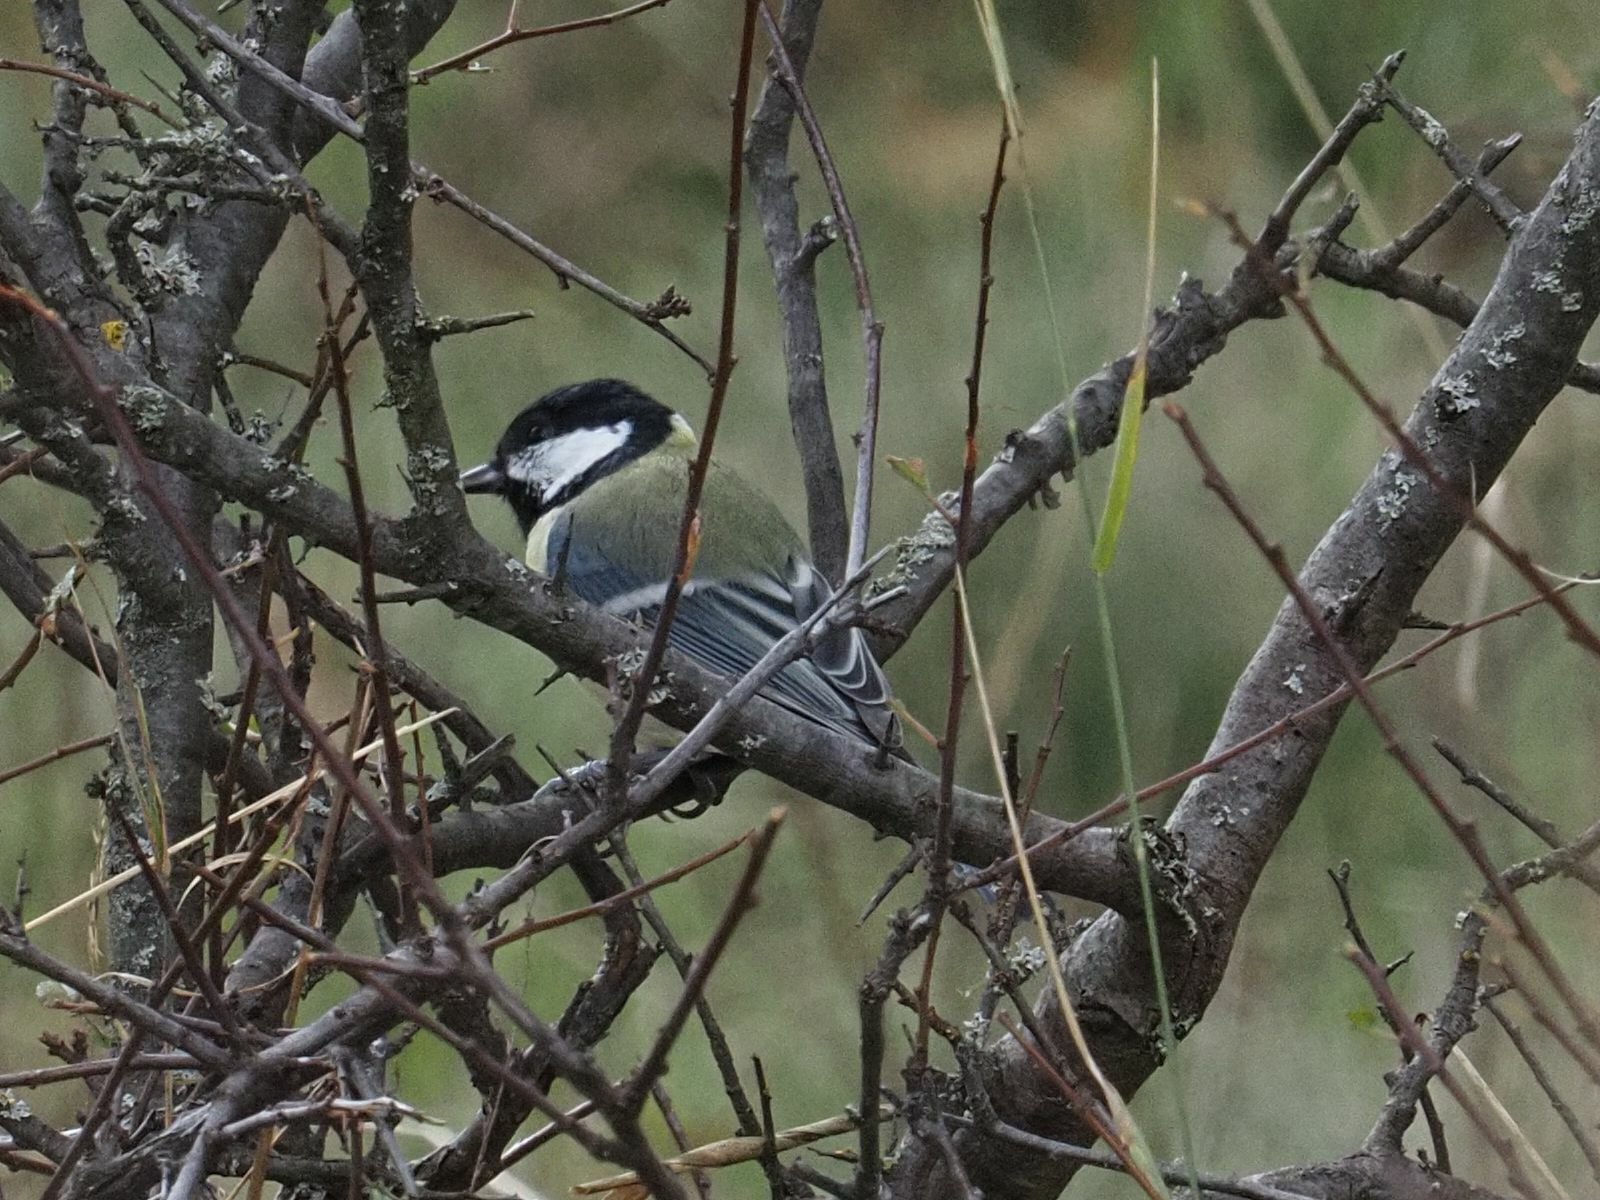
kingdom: Animalia
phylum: Chordata
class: Aves
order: Passeriformes
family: Paridae
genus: Parus
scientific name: Parus major
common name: Great tit
